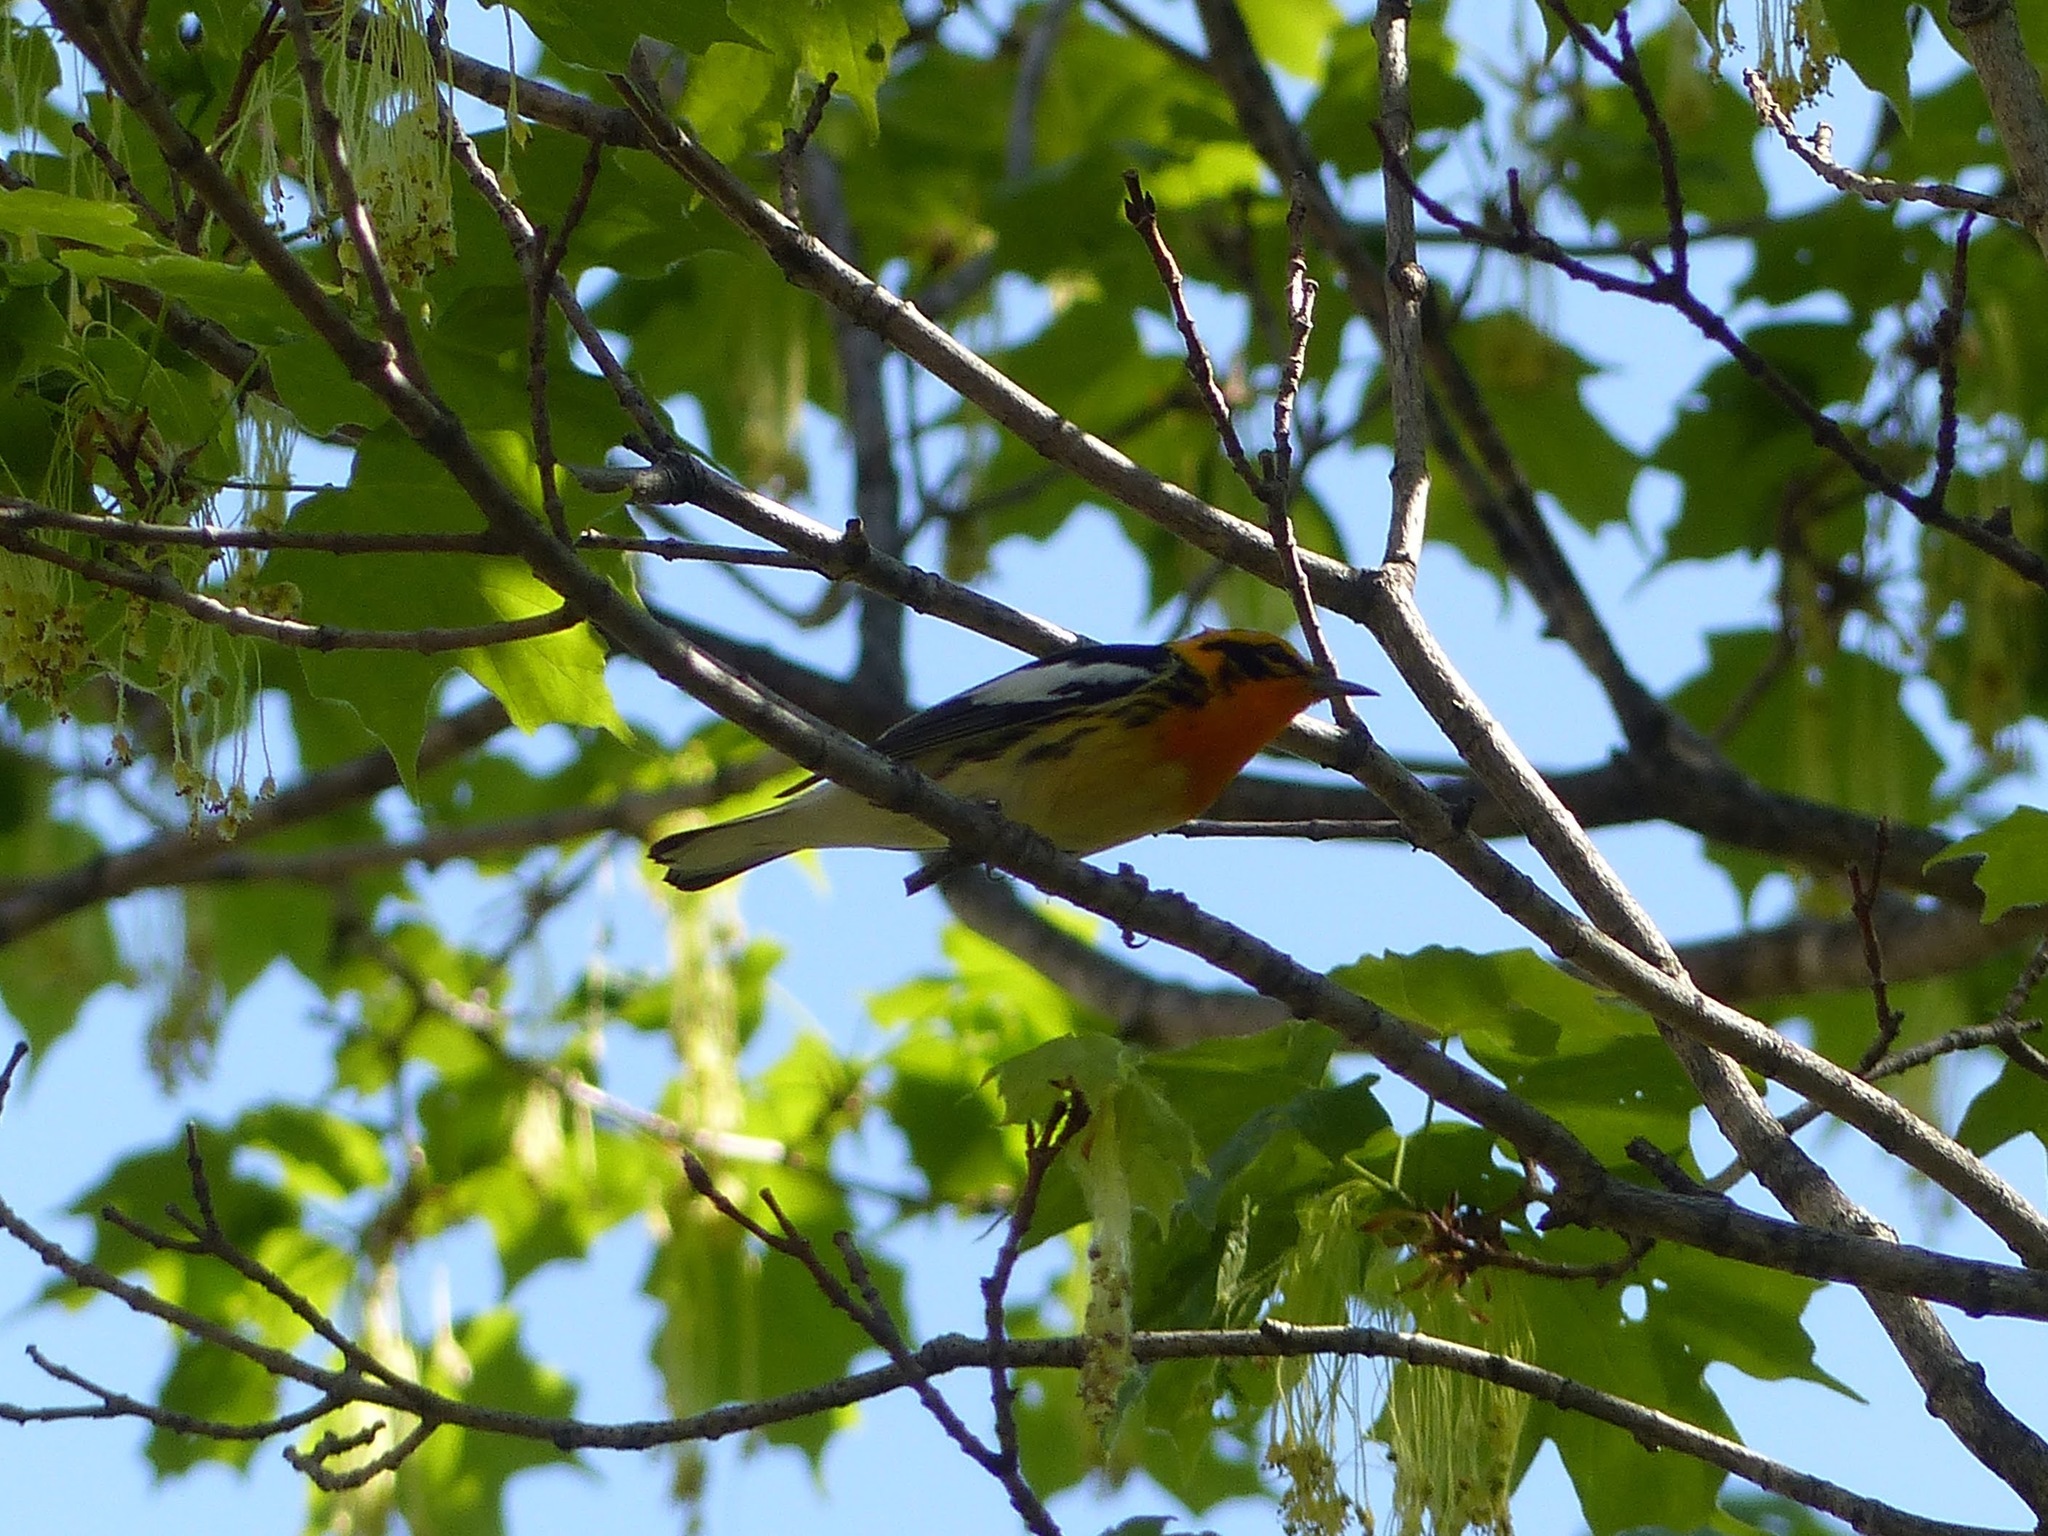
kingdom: Animalia
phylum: Chordata
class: Aves
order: Passeriformes
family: Parulidae
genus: Setophaga
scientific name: Setophaga fusca
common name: Blackburnian warbler
